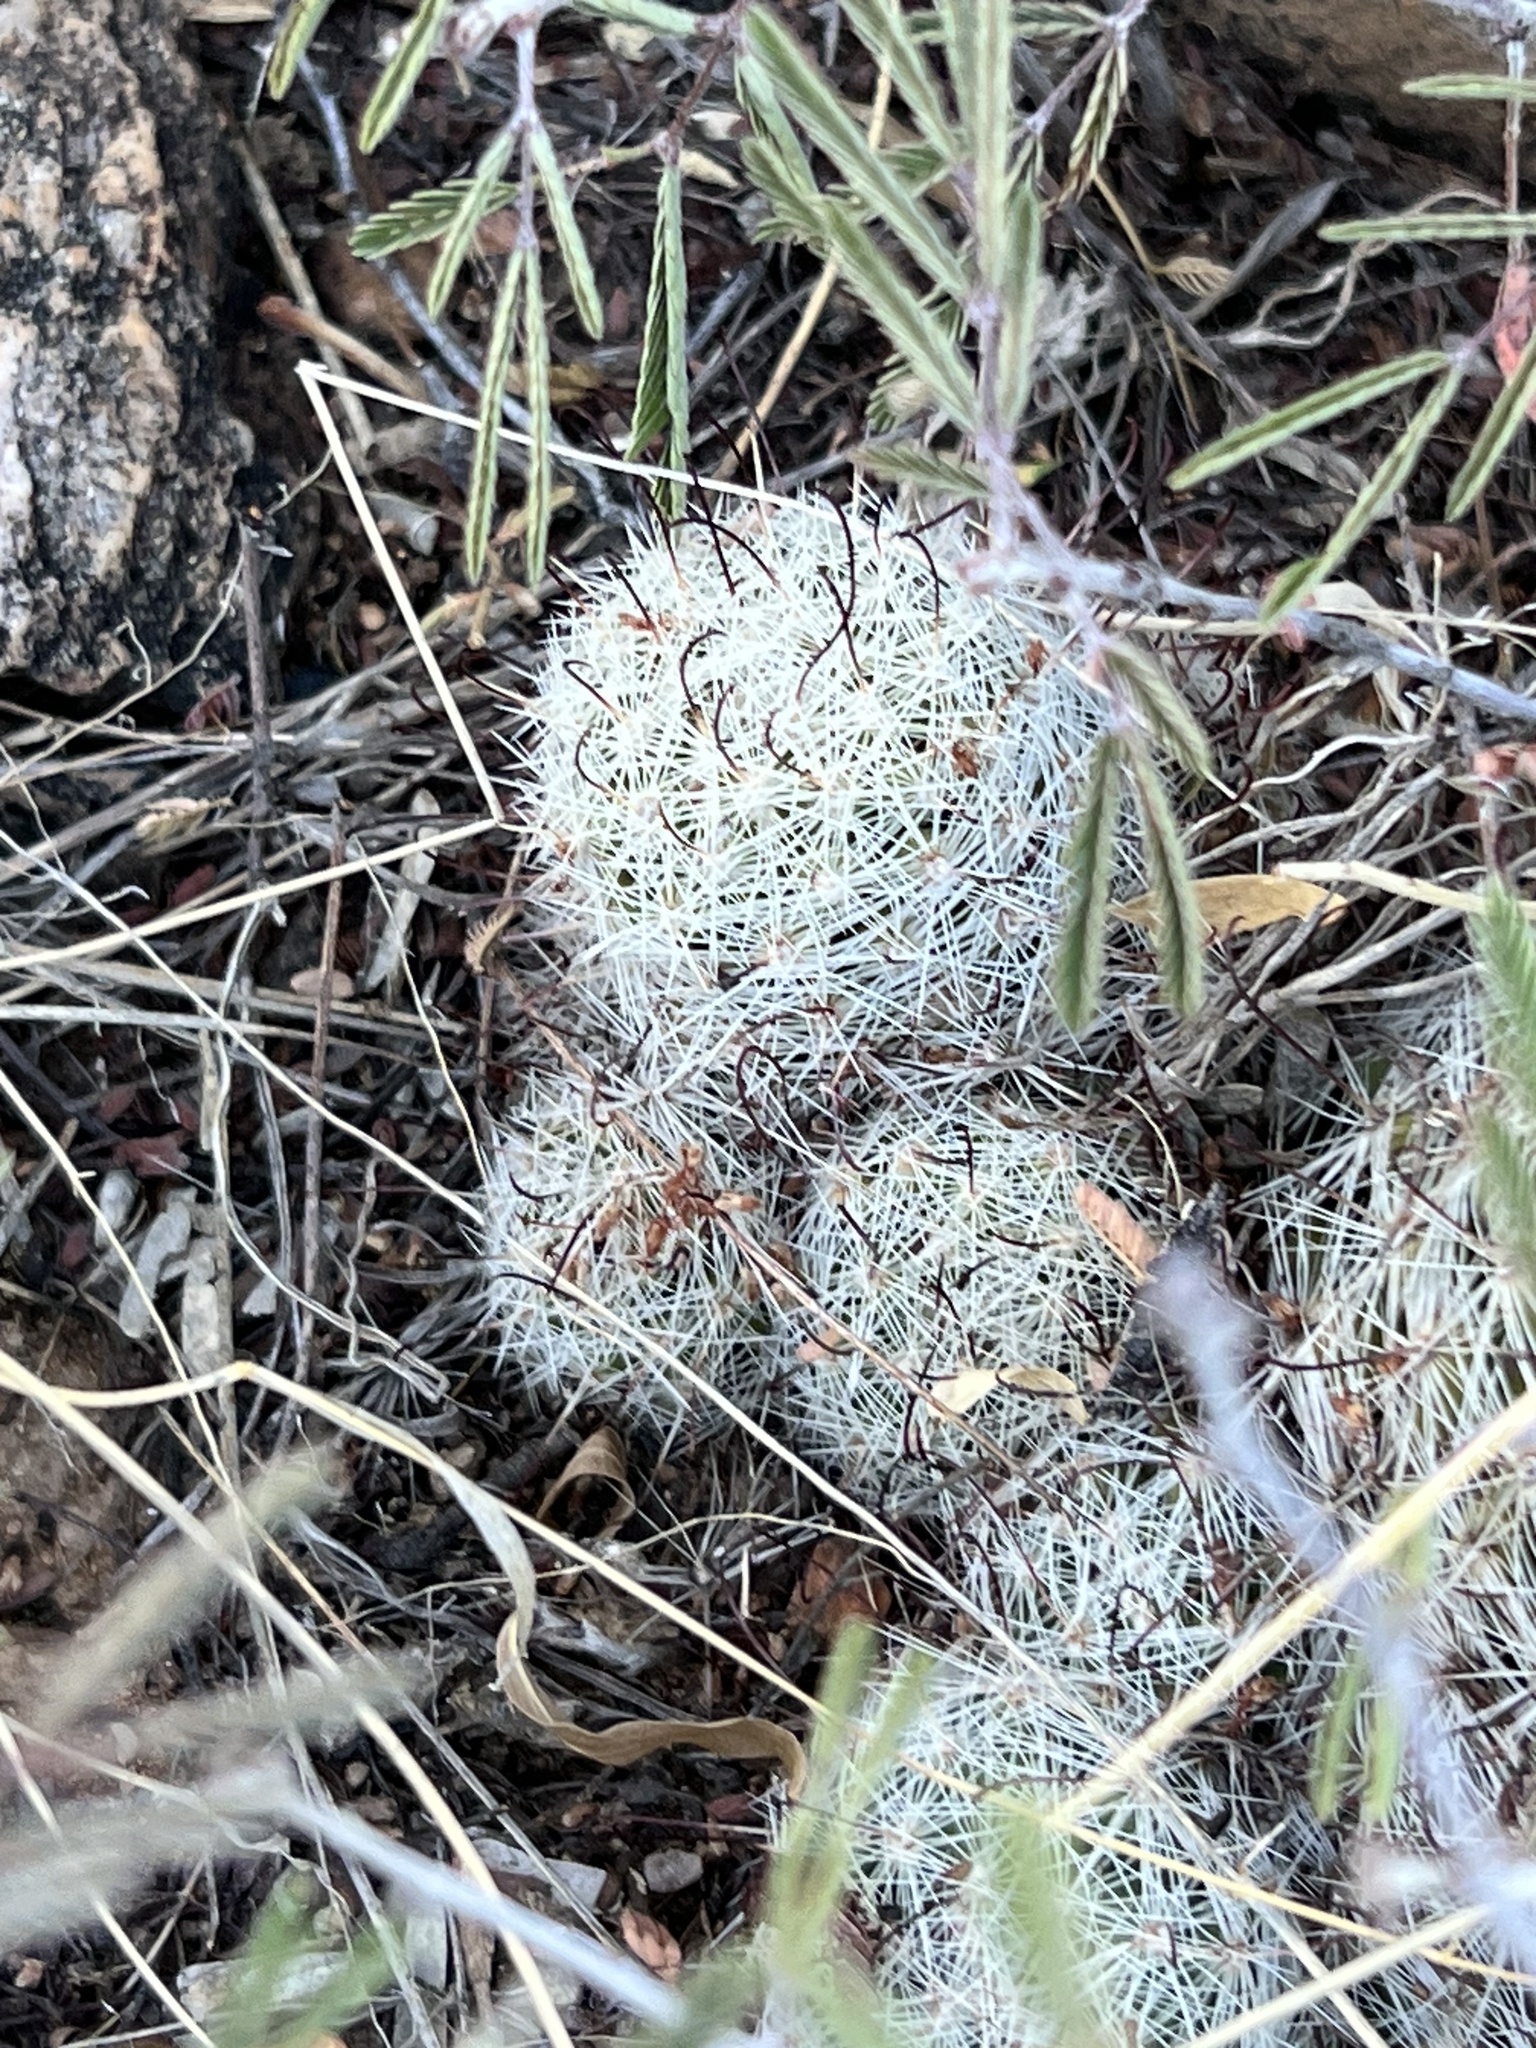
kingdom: Plantae
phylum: Tracheophyta
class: Magnoliopsida
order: Caryophyllales
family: Cactaceae
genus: Cochemiea
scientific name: Cochemiea grahamii
